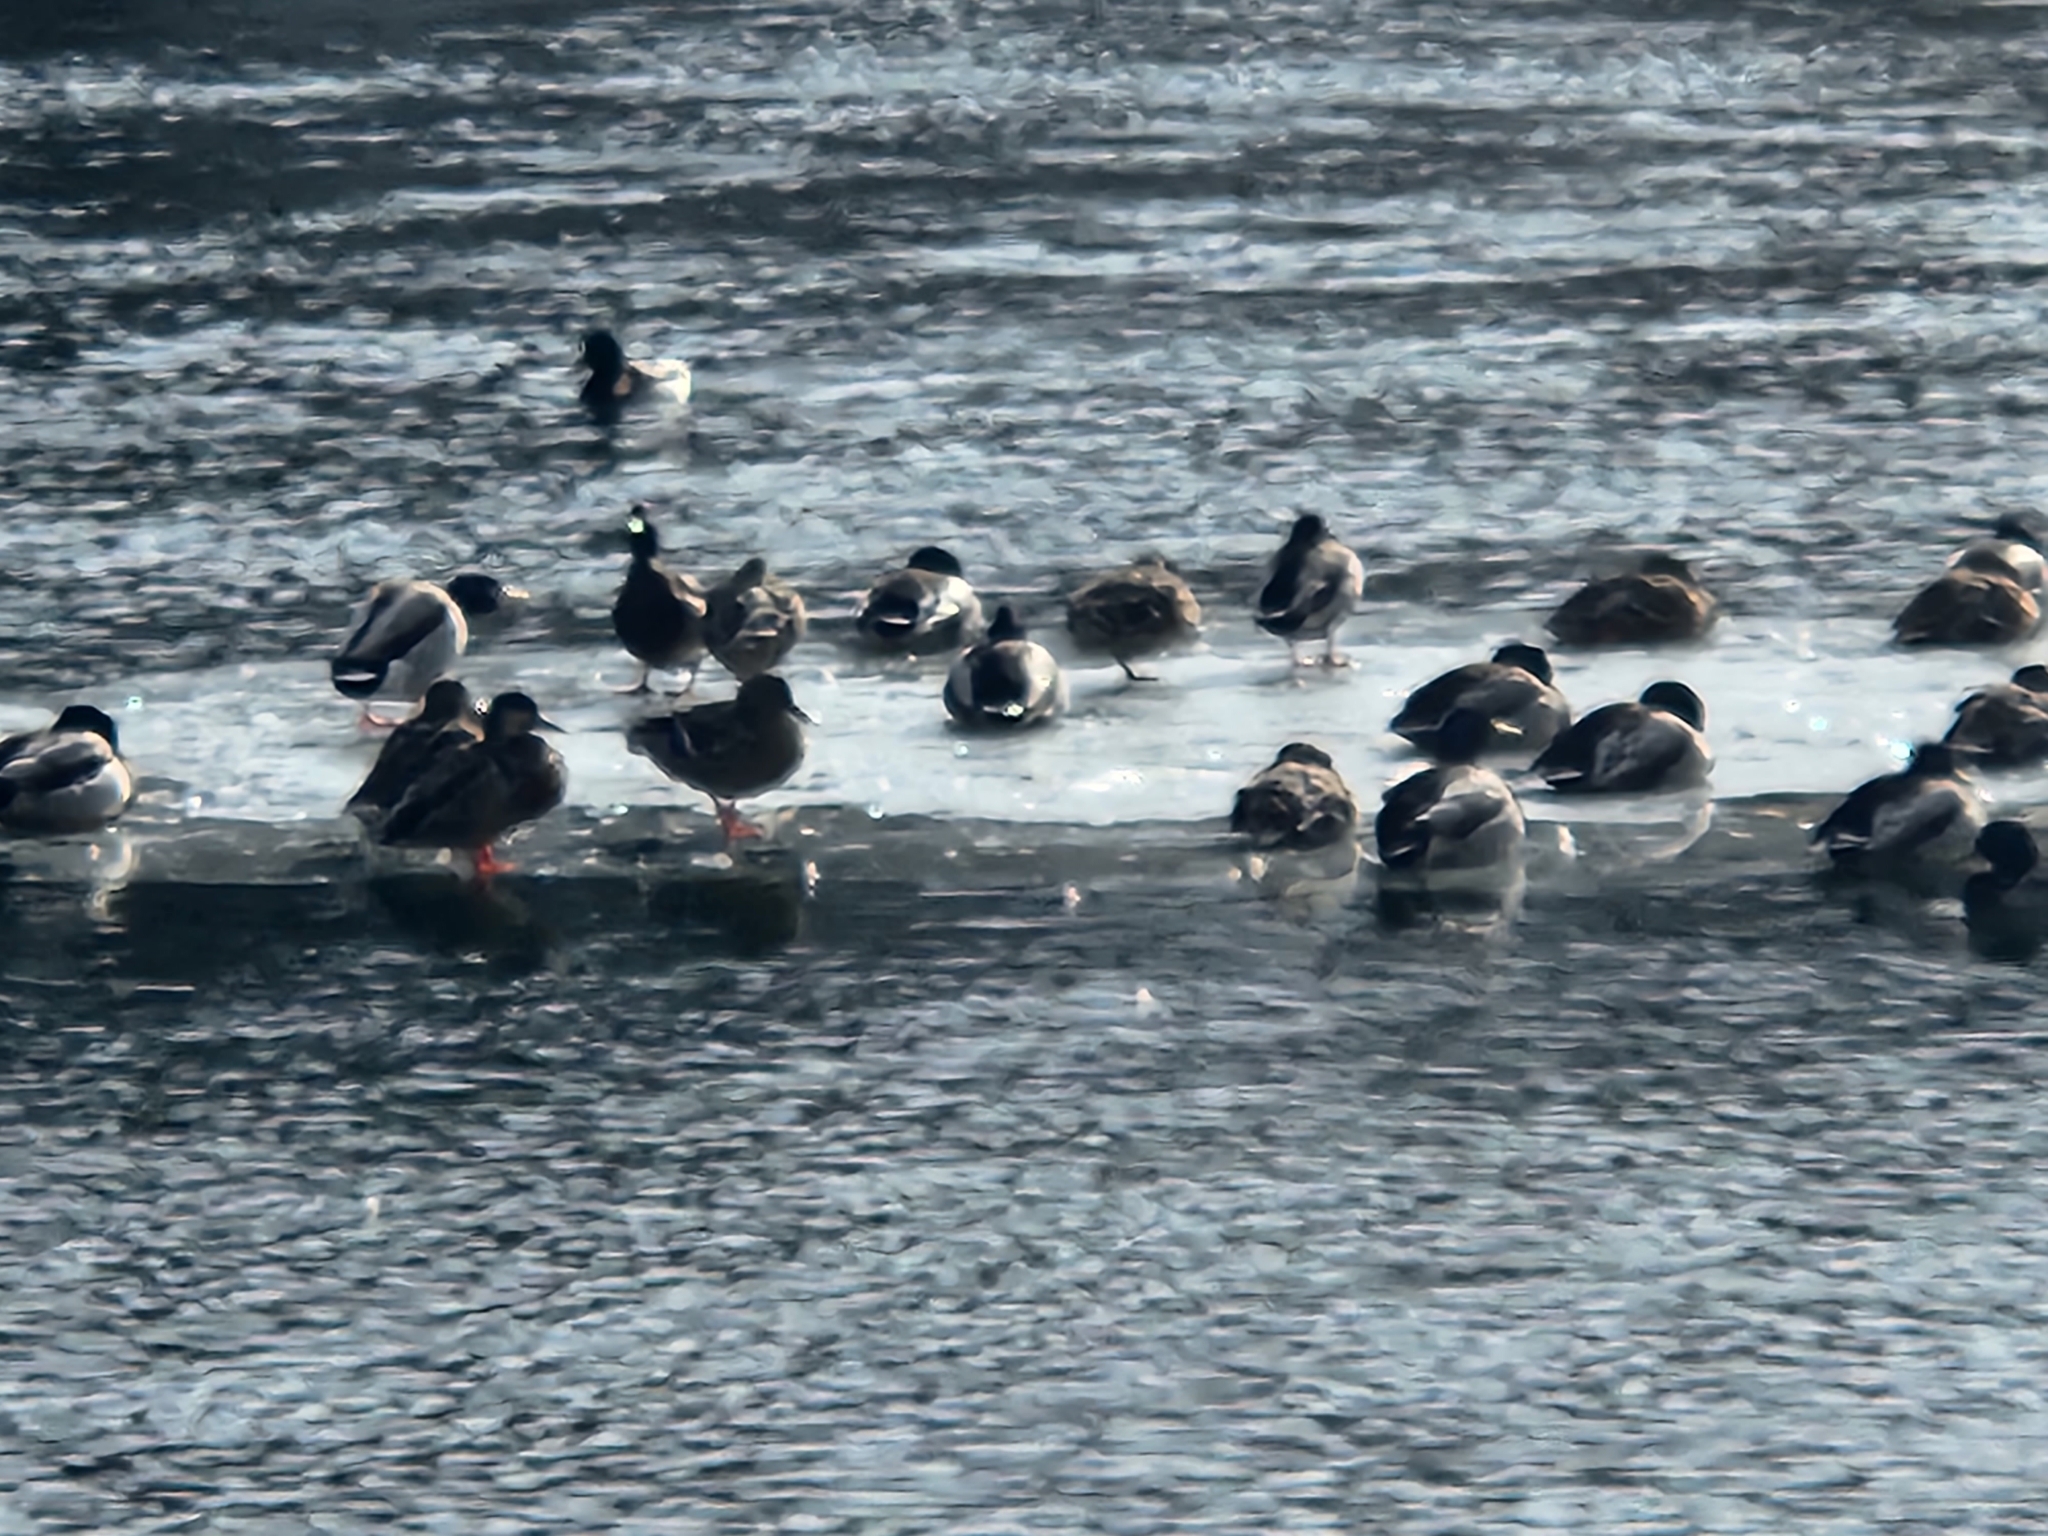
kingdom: Animalia
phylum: Chordata
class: Aves
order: Anseriformes
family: Anatidae
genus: Anas
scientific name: Anas platyrhynchos
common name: Mallard
